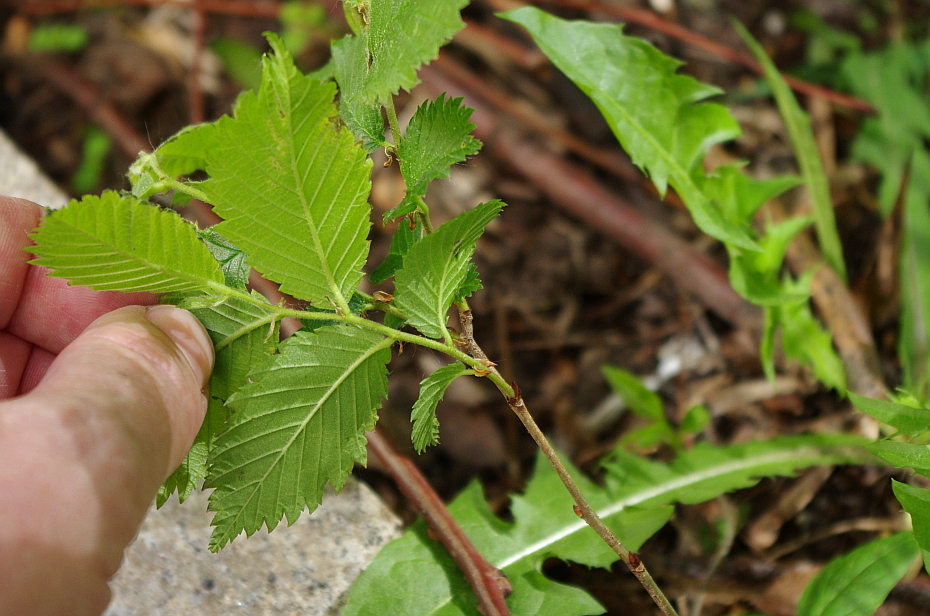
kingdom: Plantae
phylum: Tracheophyta
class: Magnoliopsida
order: Rosales
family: Ulmaceae
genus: Ulmus
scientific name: Ulmus laevis
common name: European white-elm
